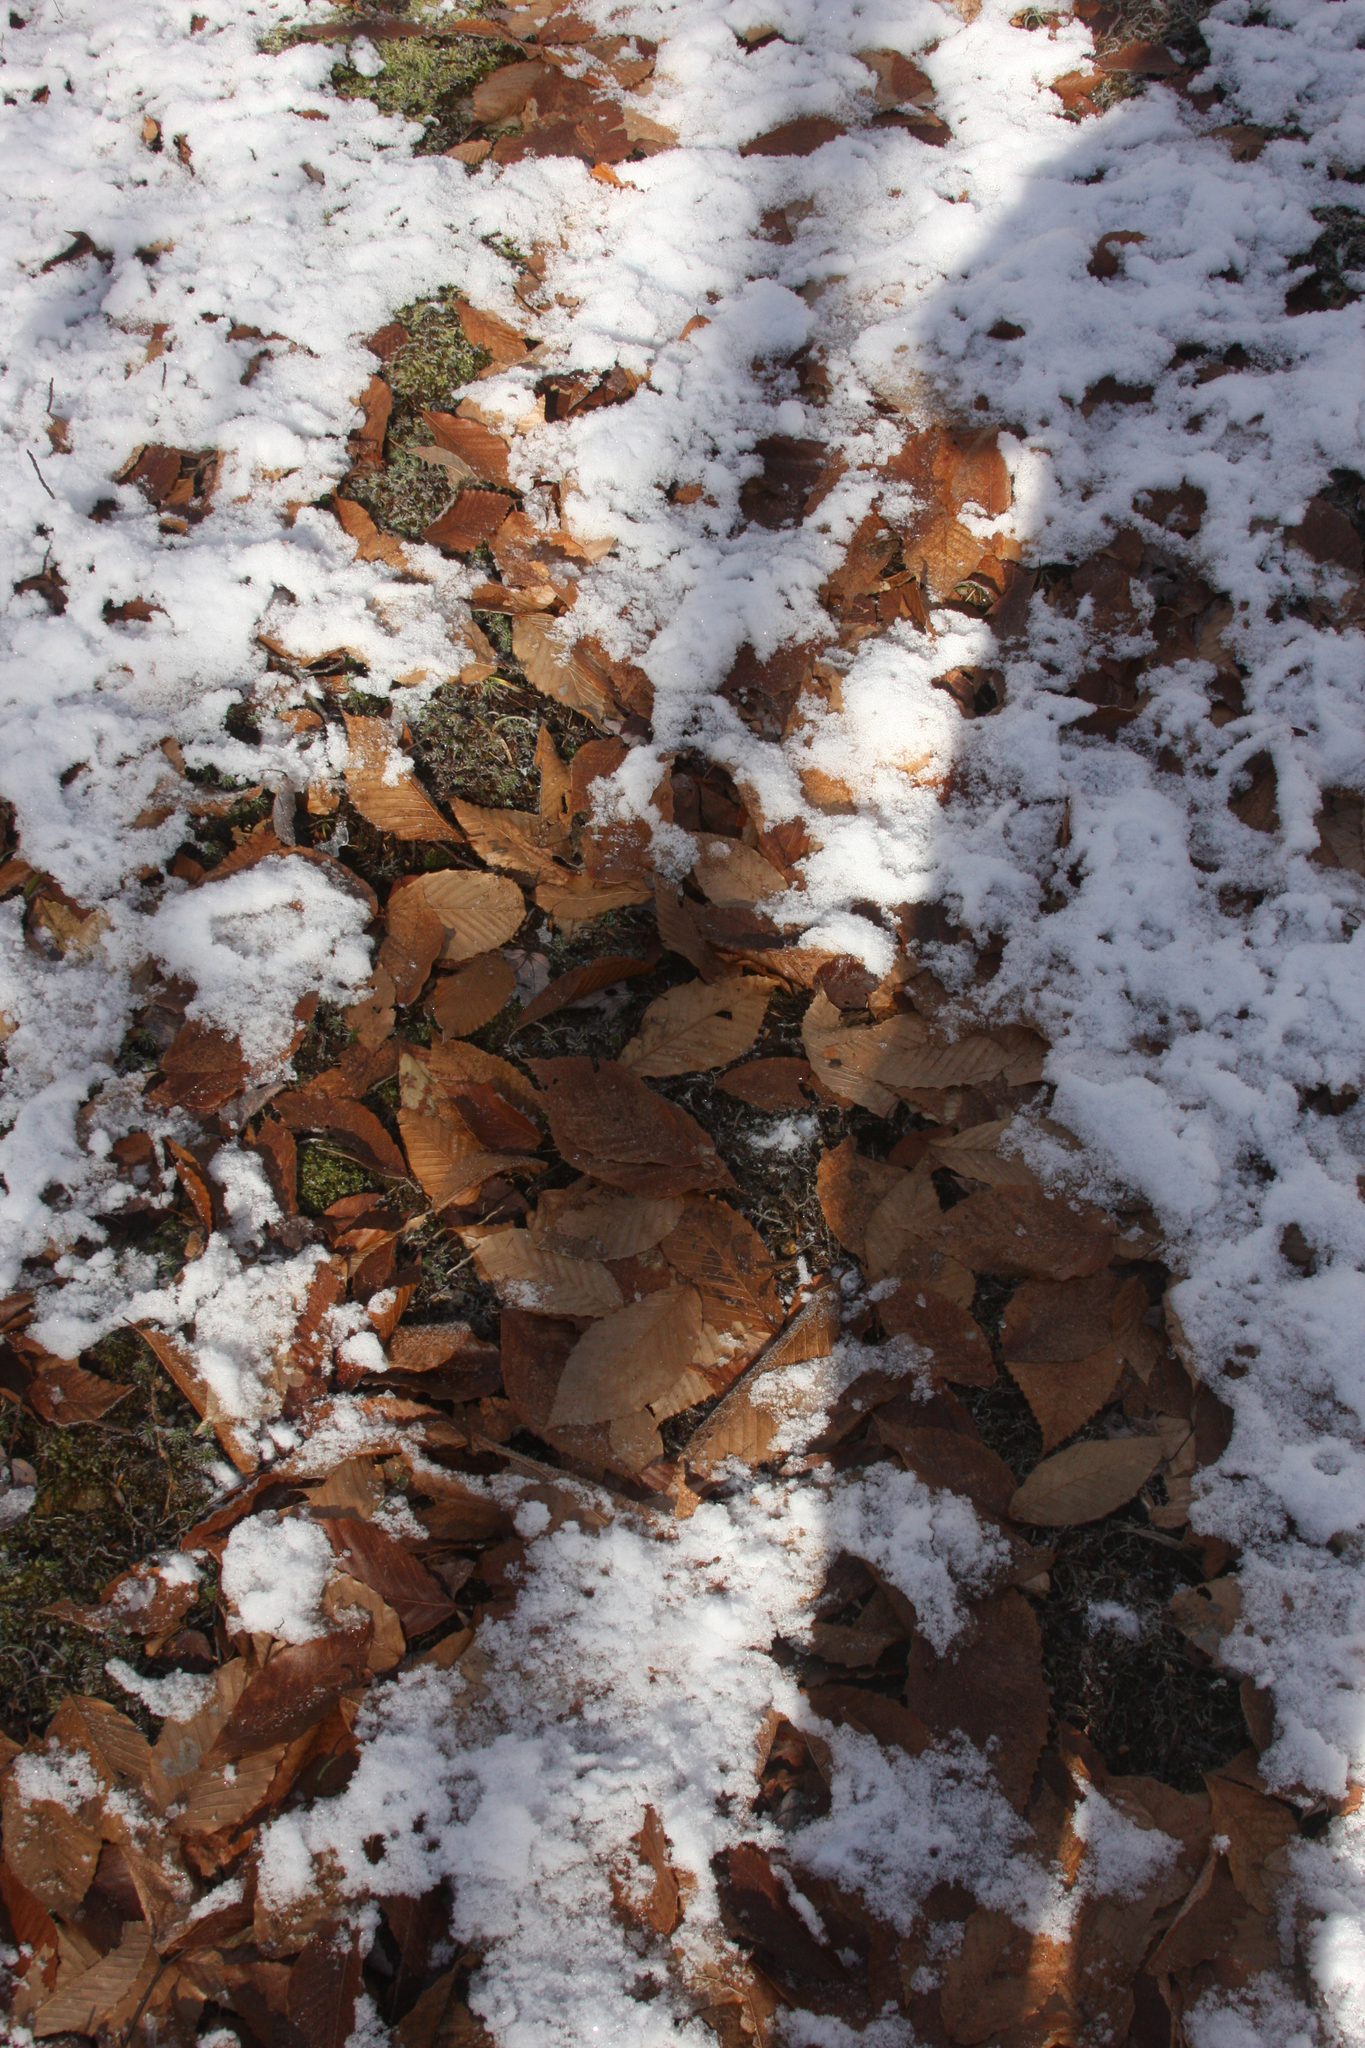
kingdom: Plantae
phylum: Tracheophyta
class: Magnoliopsida
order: Fagales
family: Fagaceae
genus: Fagus
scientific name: Fagus grandifolia
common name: American beech
